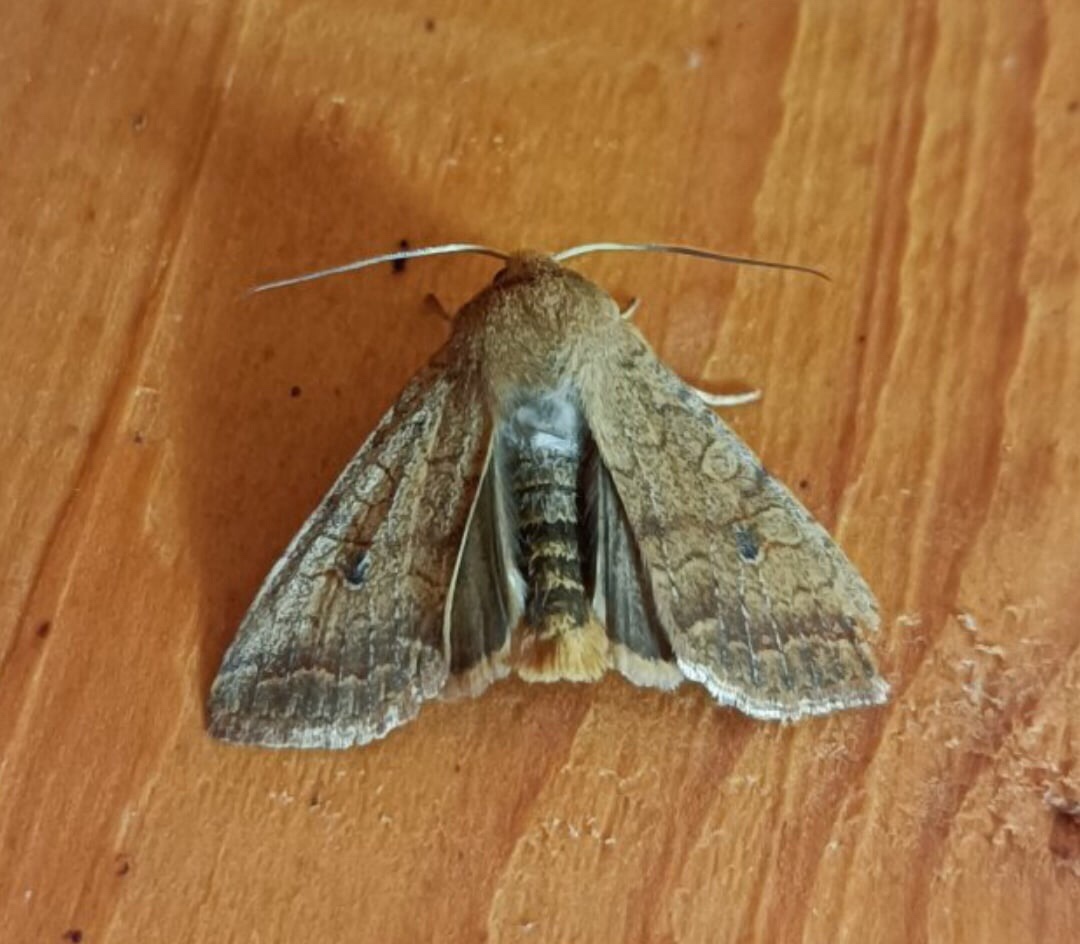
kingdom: Animalia
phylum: Arthropoda
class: Insecta
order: Lepidoptera
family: Noctuidae
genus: Sunira
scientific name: Sunira circellaris
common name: Brick
